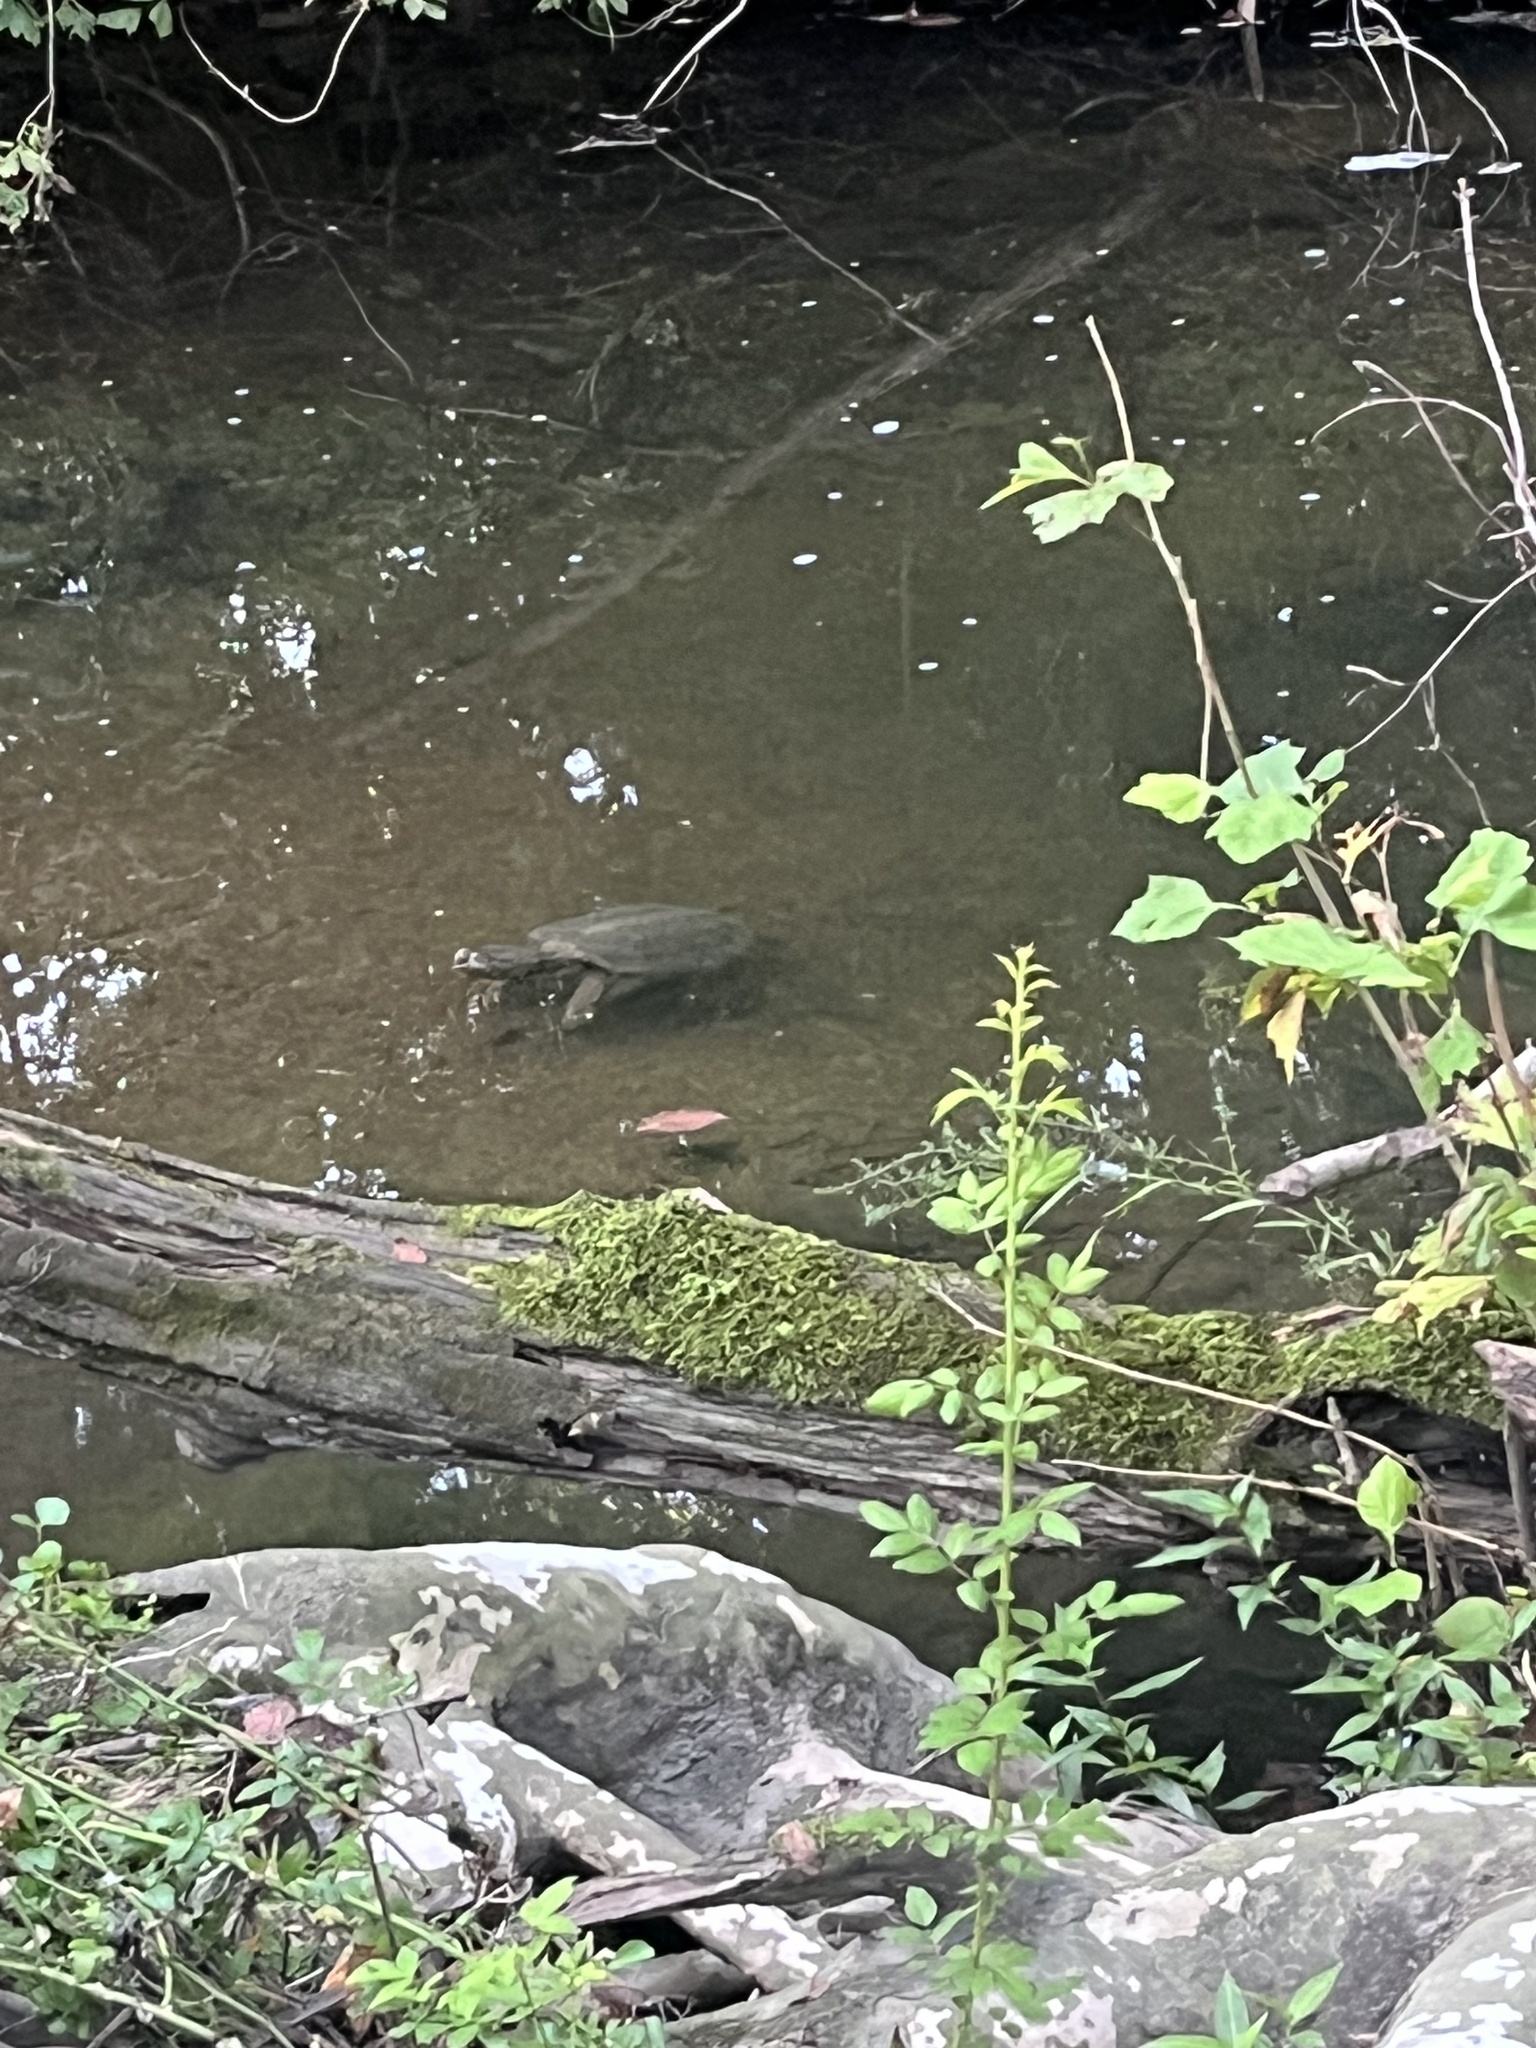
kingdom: Animalia
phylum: Chordata
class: Testudines
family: Chelydridae
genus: Chelydra
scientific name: Chelydra serpentina
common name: Common snapping turtle
